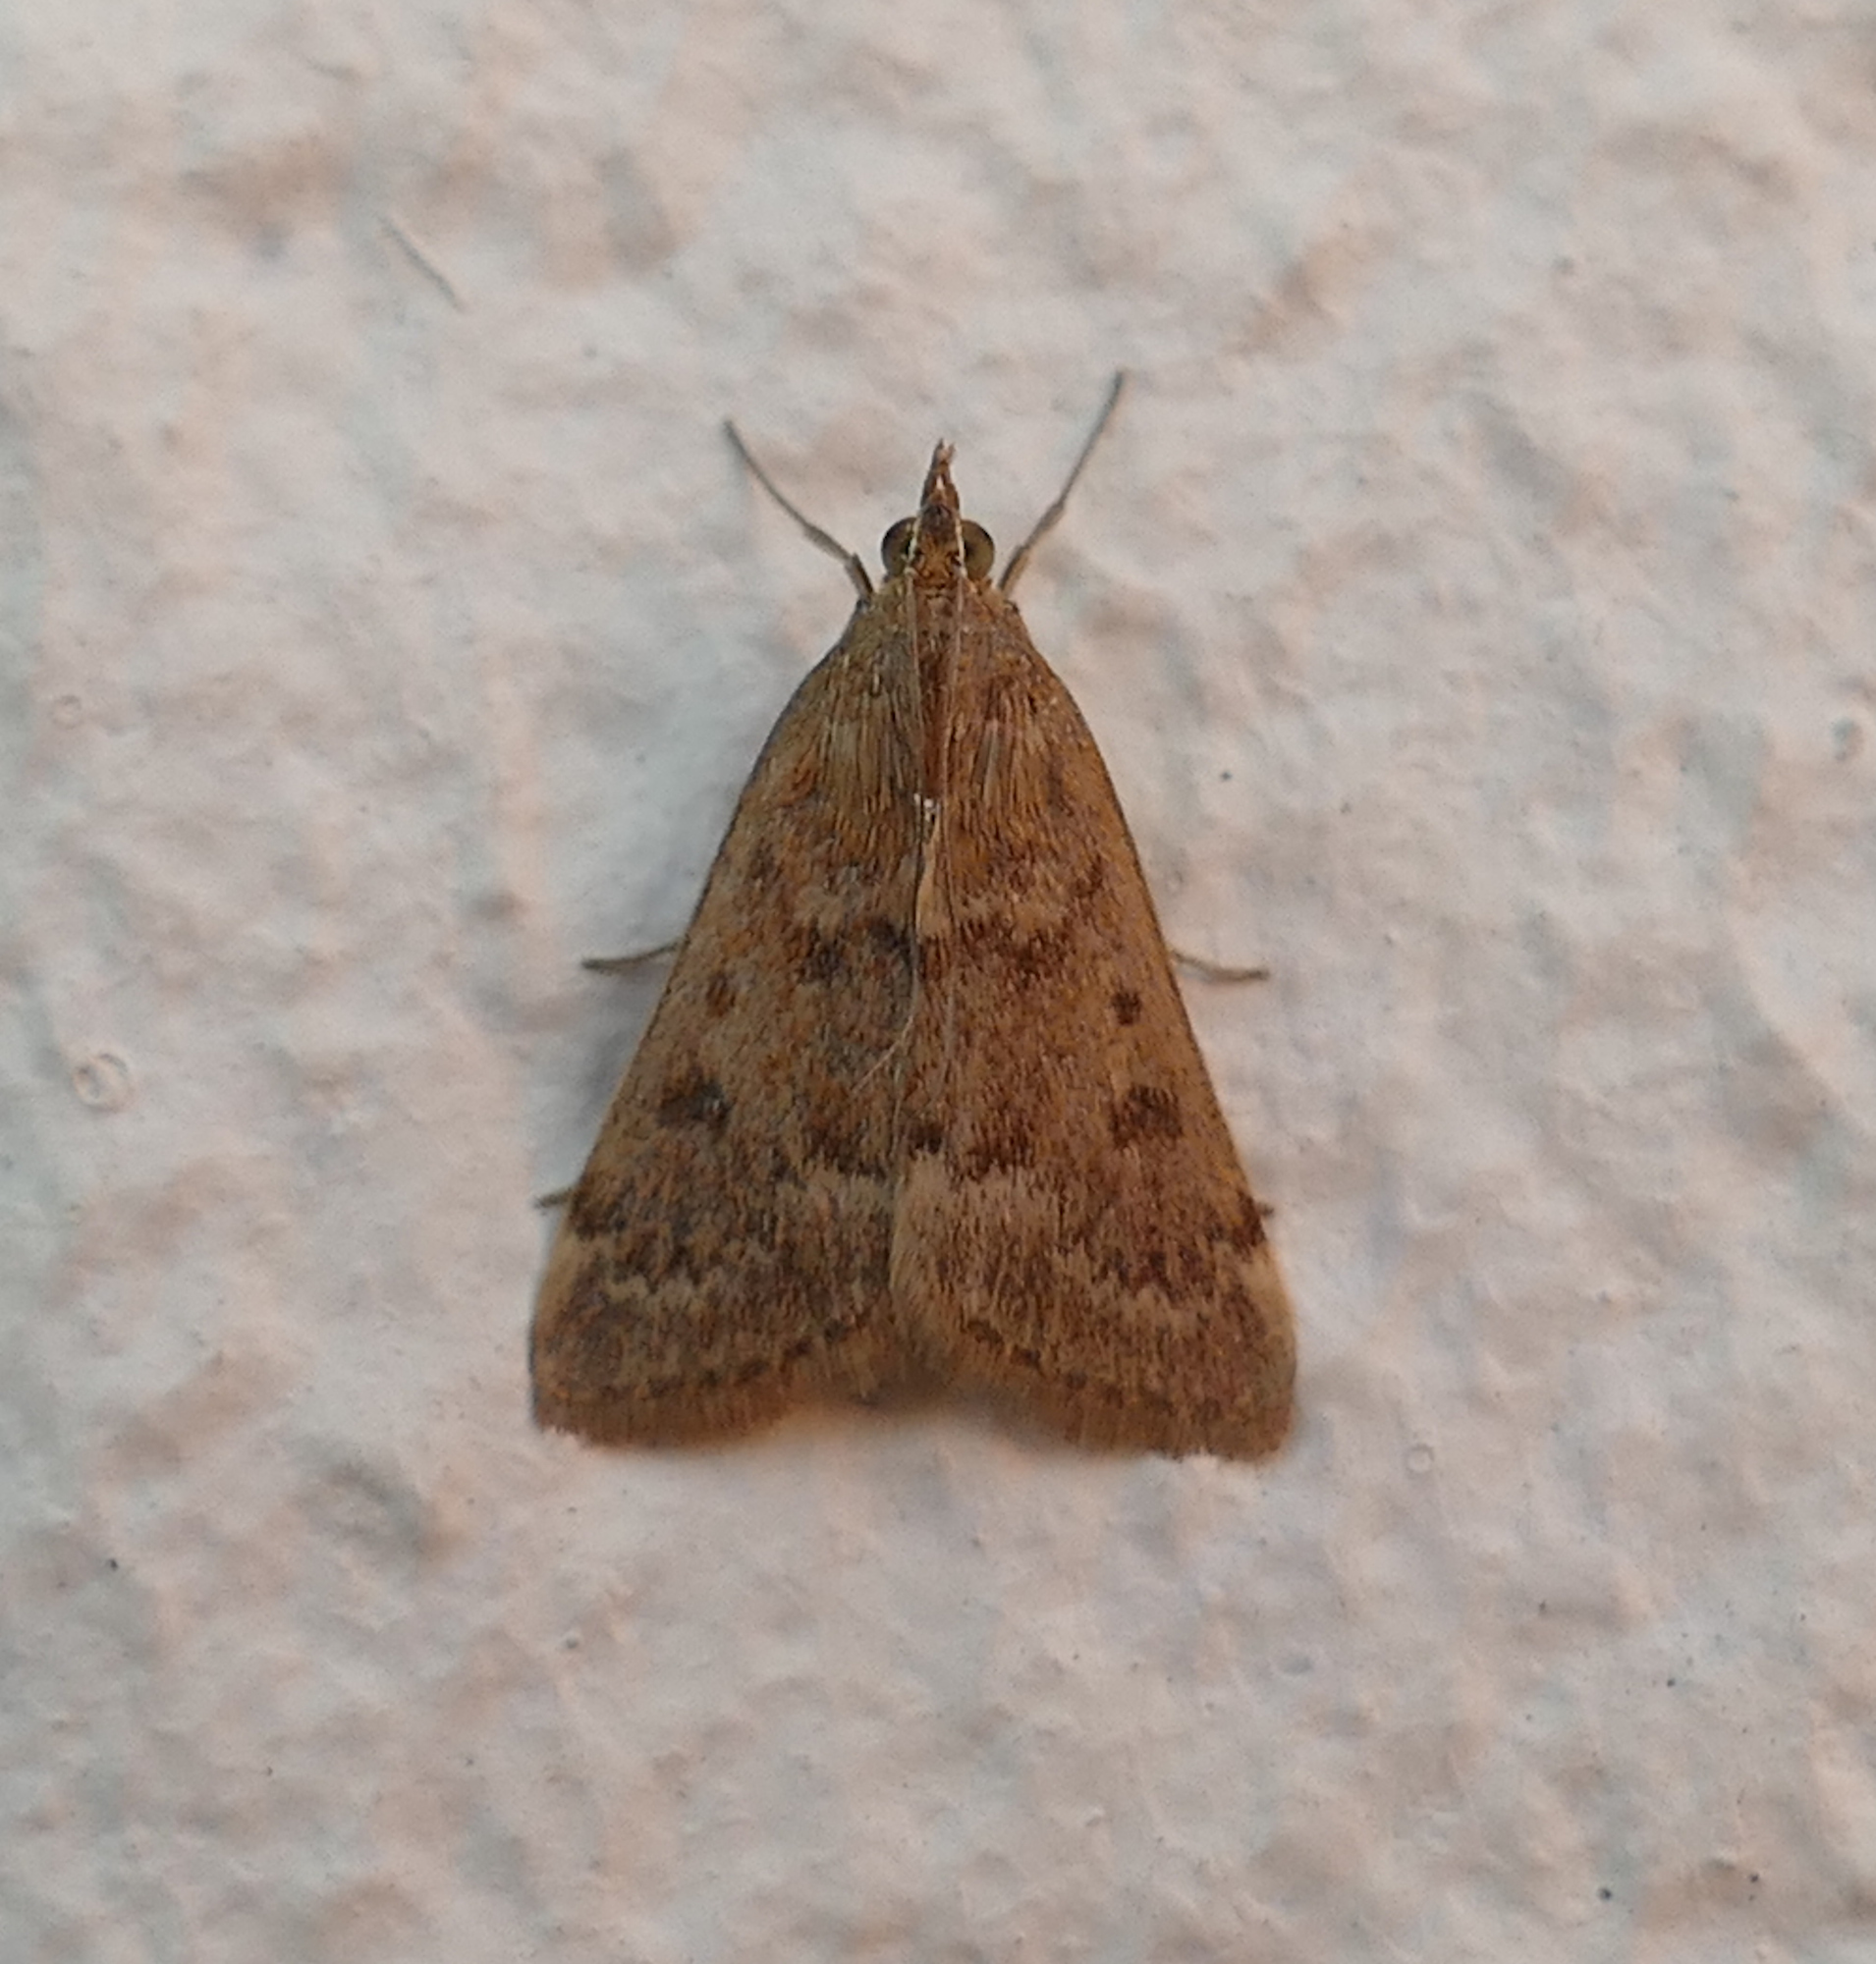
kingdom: Animalia
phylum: Arthropoda
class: Insecta
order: Lepidoptera
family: Crambidae
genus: Achyra
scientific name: Achyra rantalis
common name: Garden webworm
